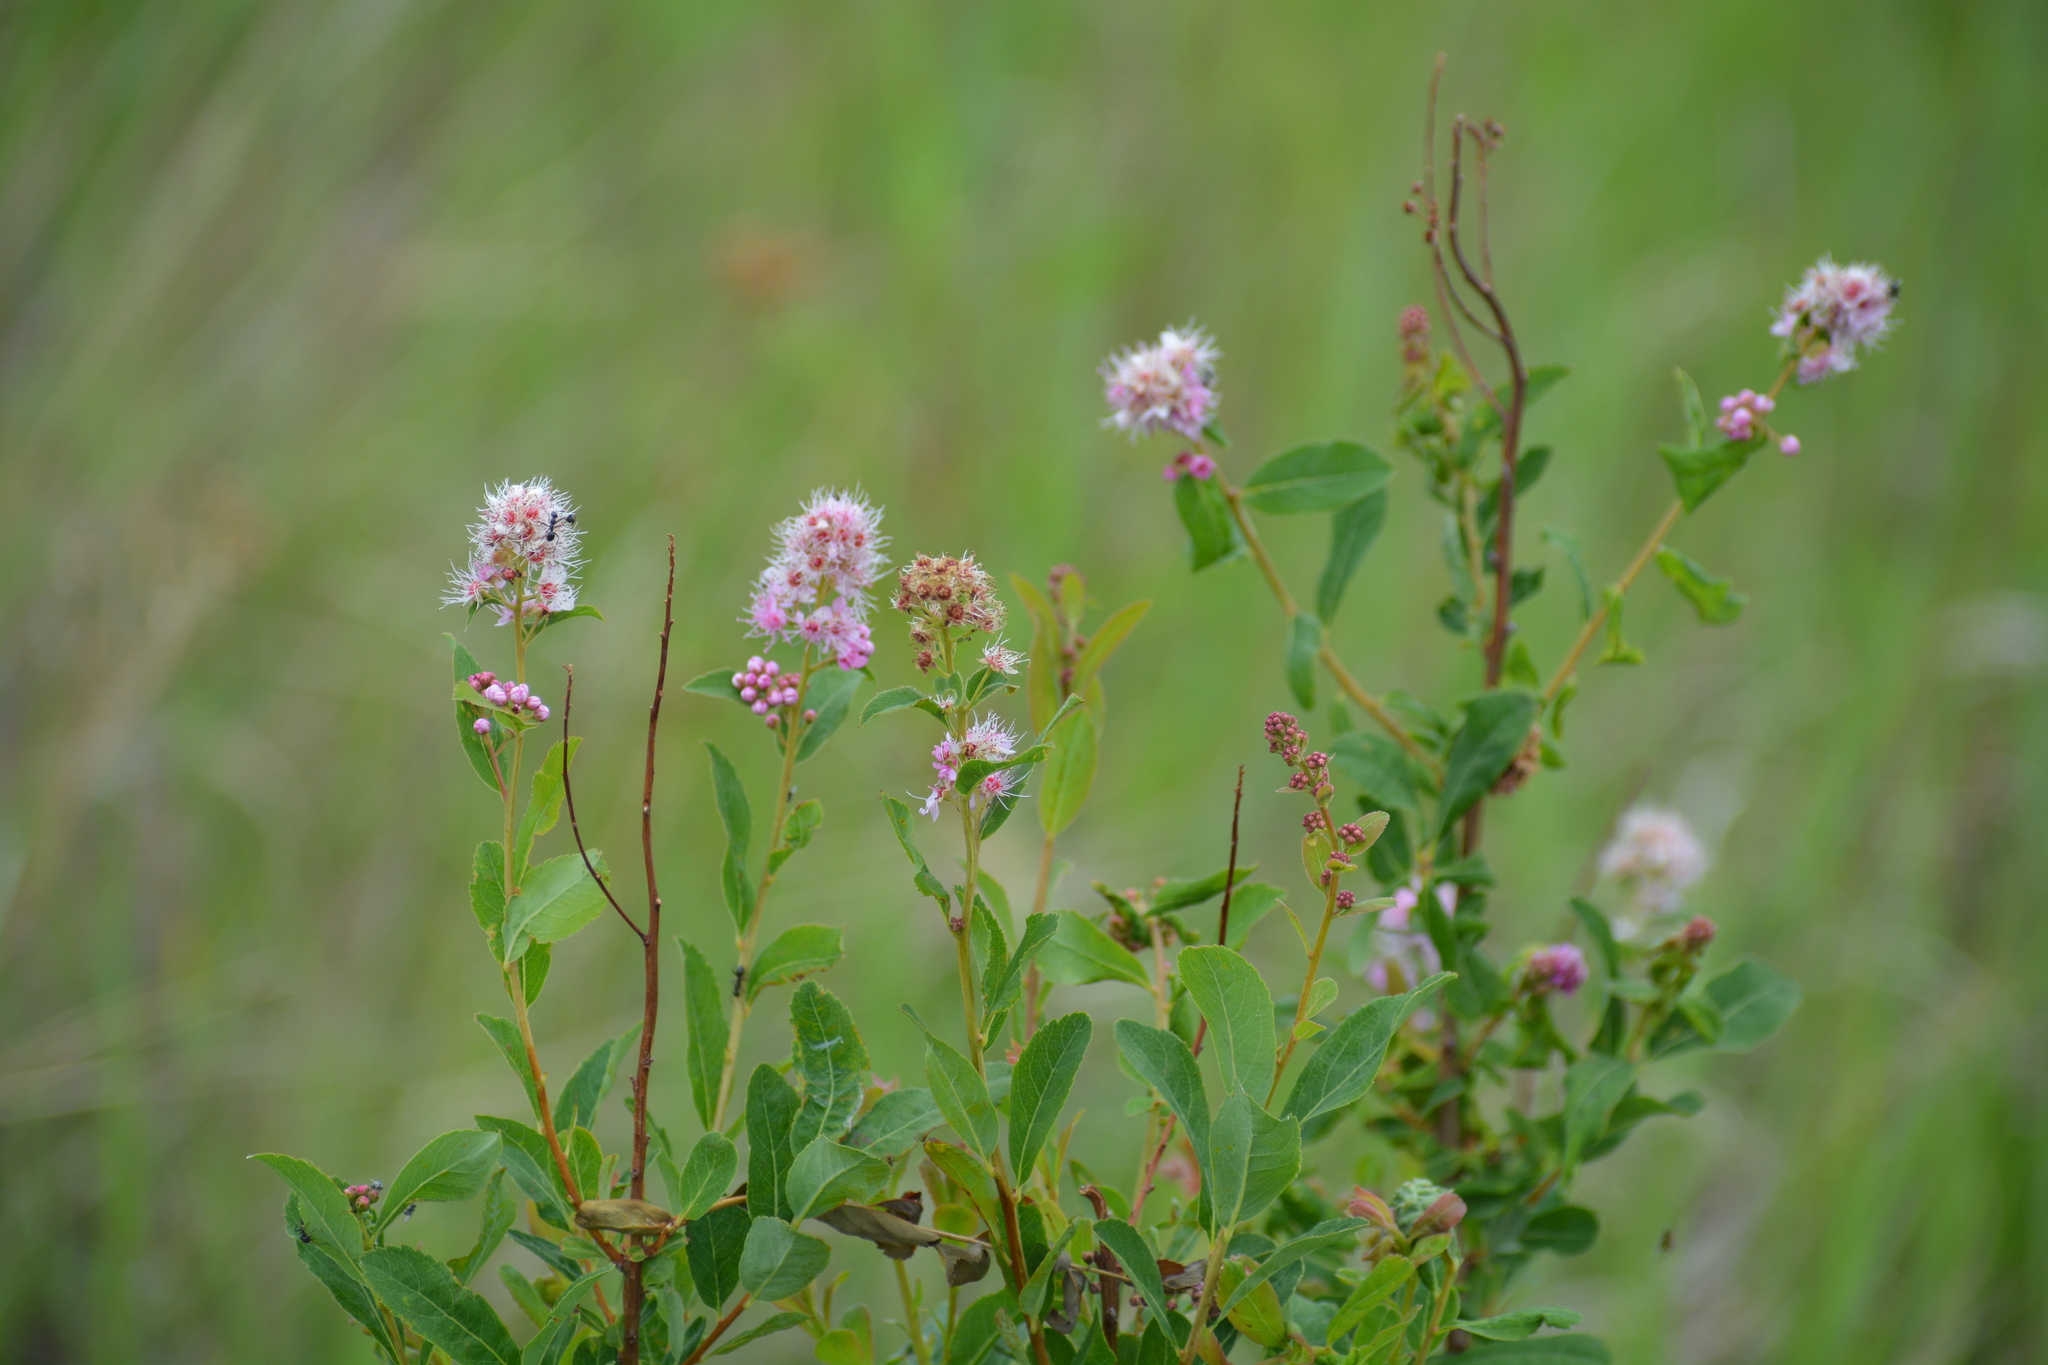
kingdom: Plantae
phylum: Tracheophyta
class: Magnoliopsida
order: Rosales
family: Rosaceae
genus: Spiraea
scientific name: Spiraea salicifolia
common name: Bridewort
